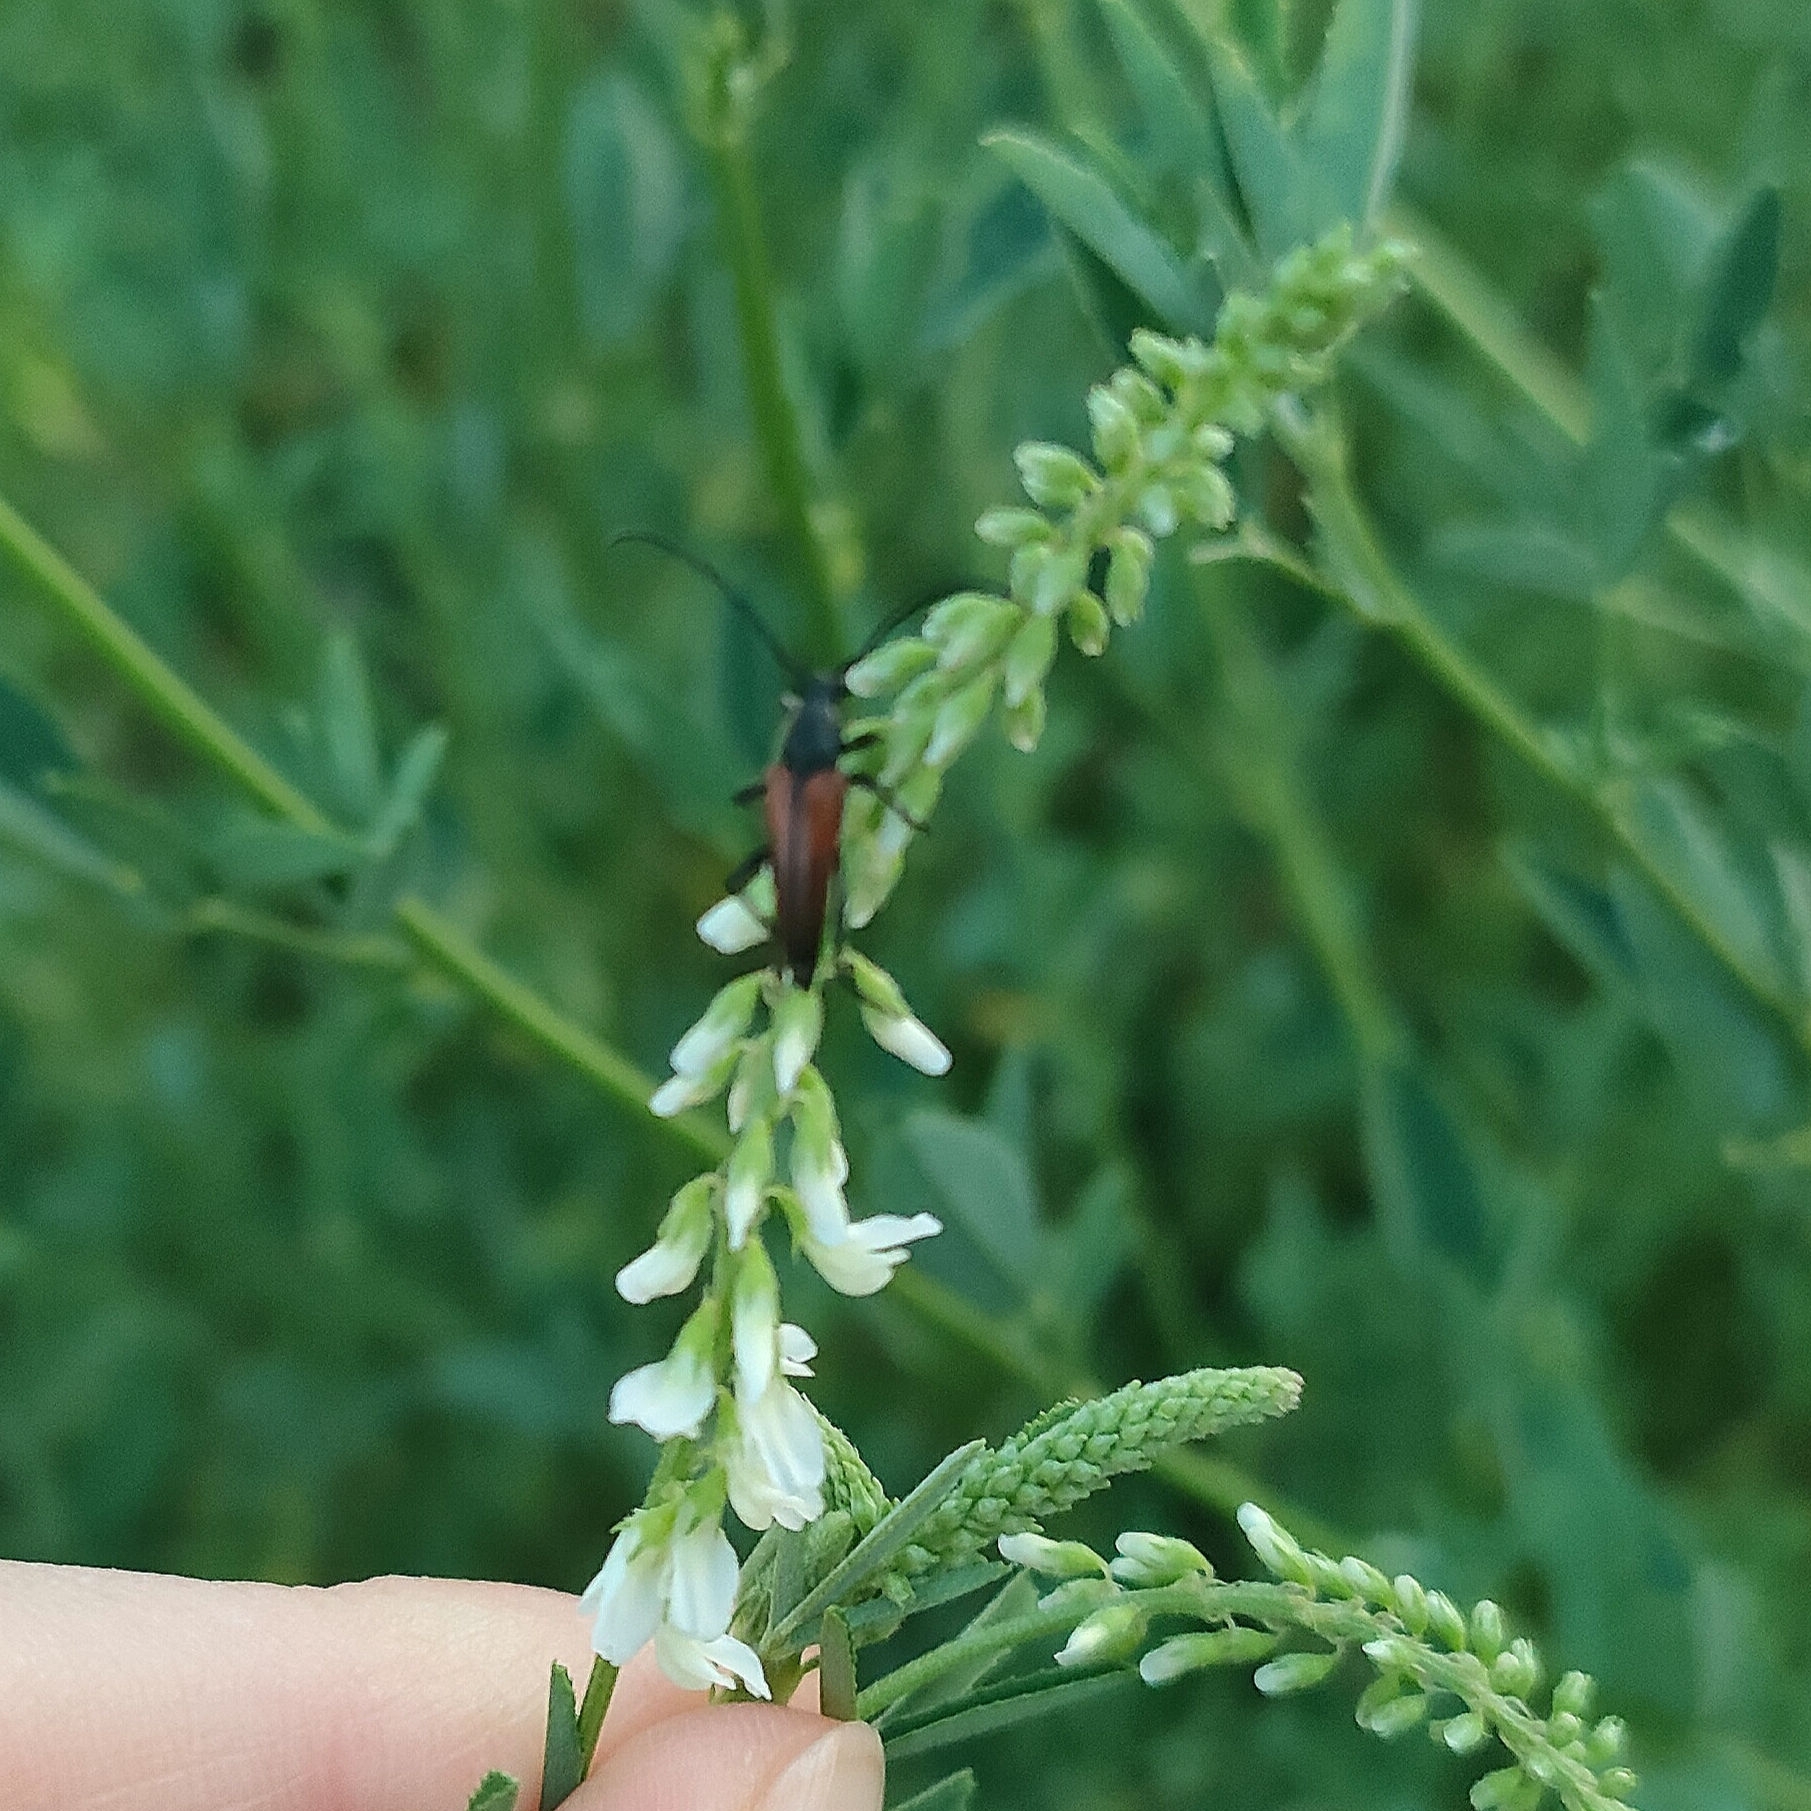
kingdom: Animalia
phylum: Arthropoda
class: Insecta
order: Coleoptera
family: Cerambycidae
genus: Stenurella
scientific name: Stenurella melanura
